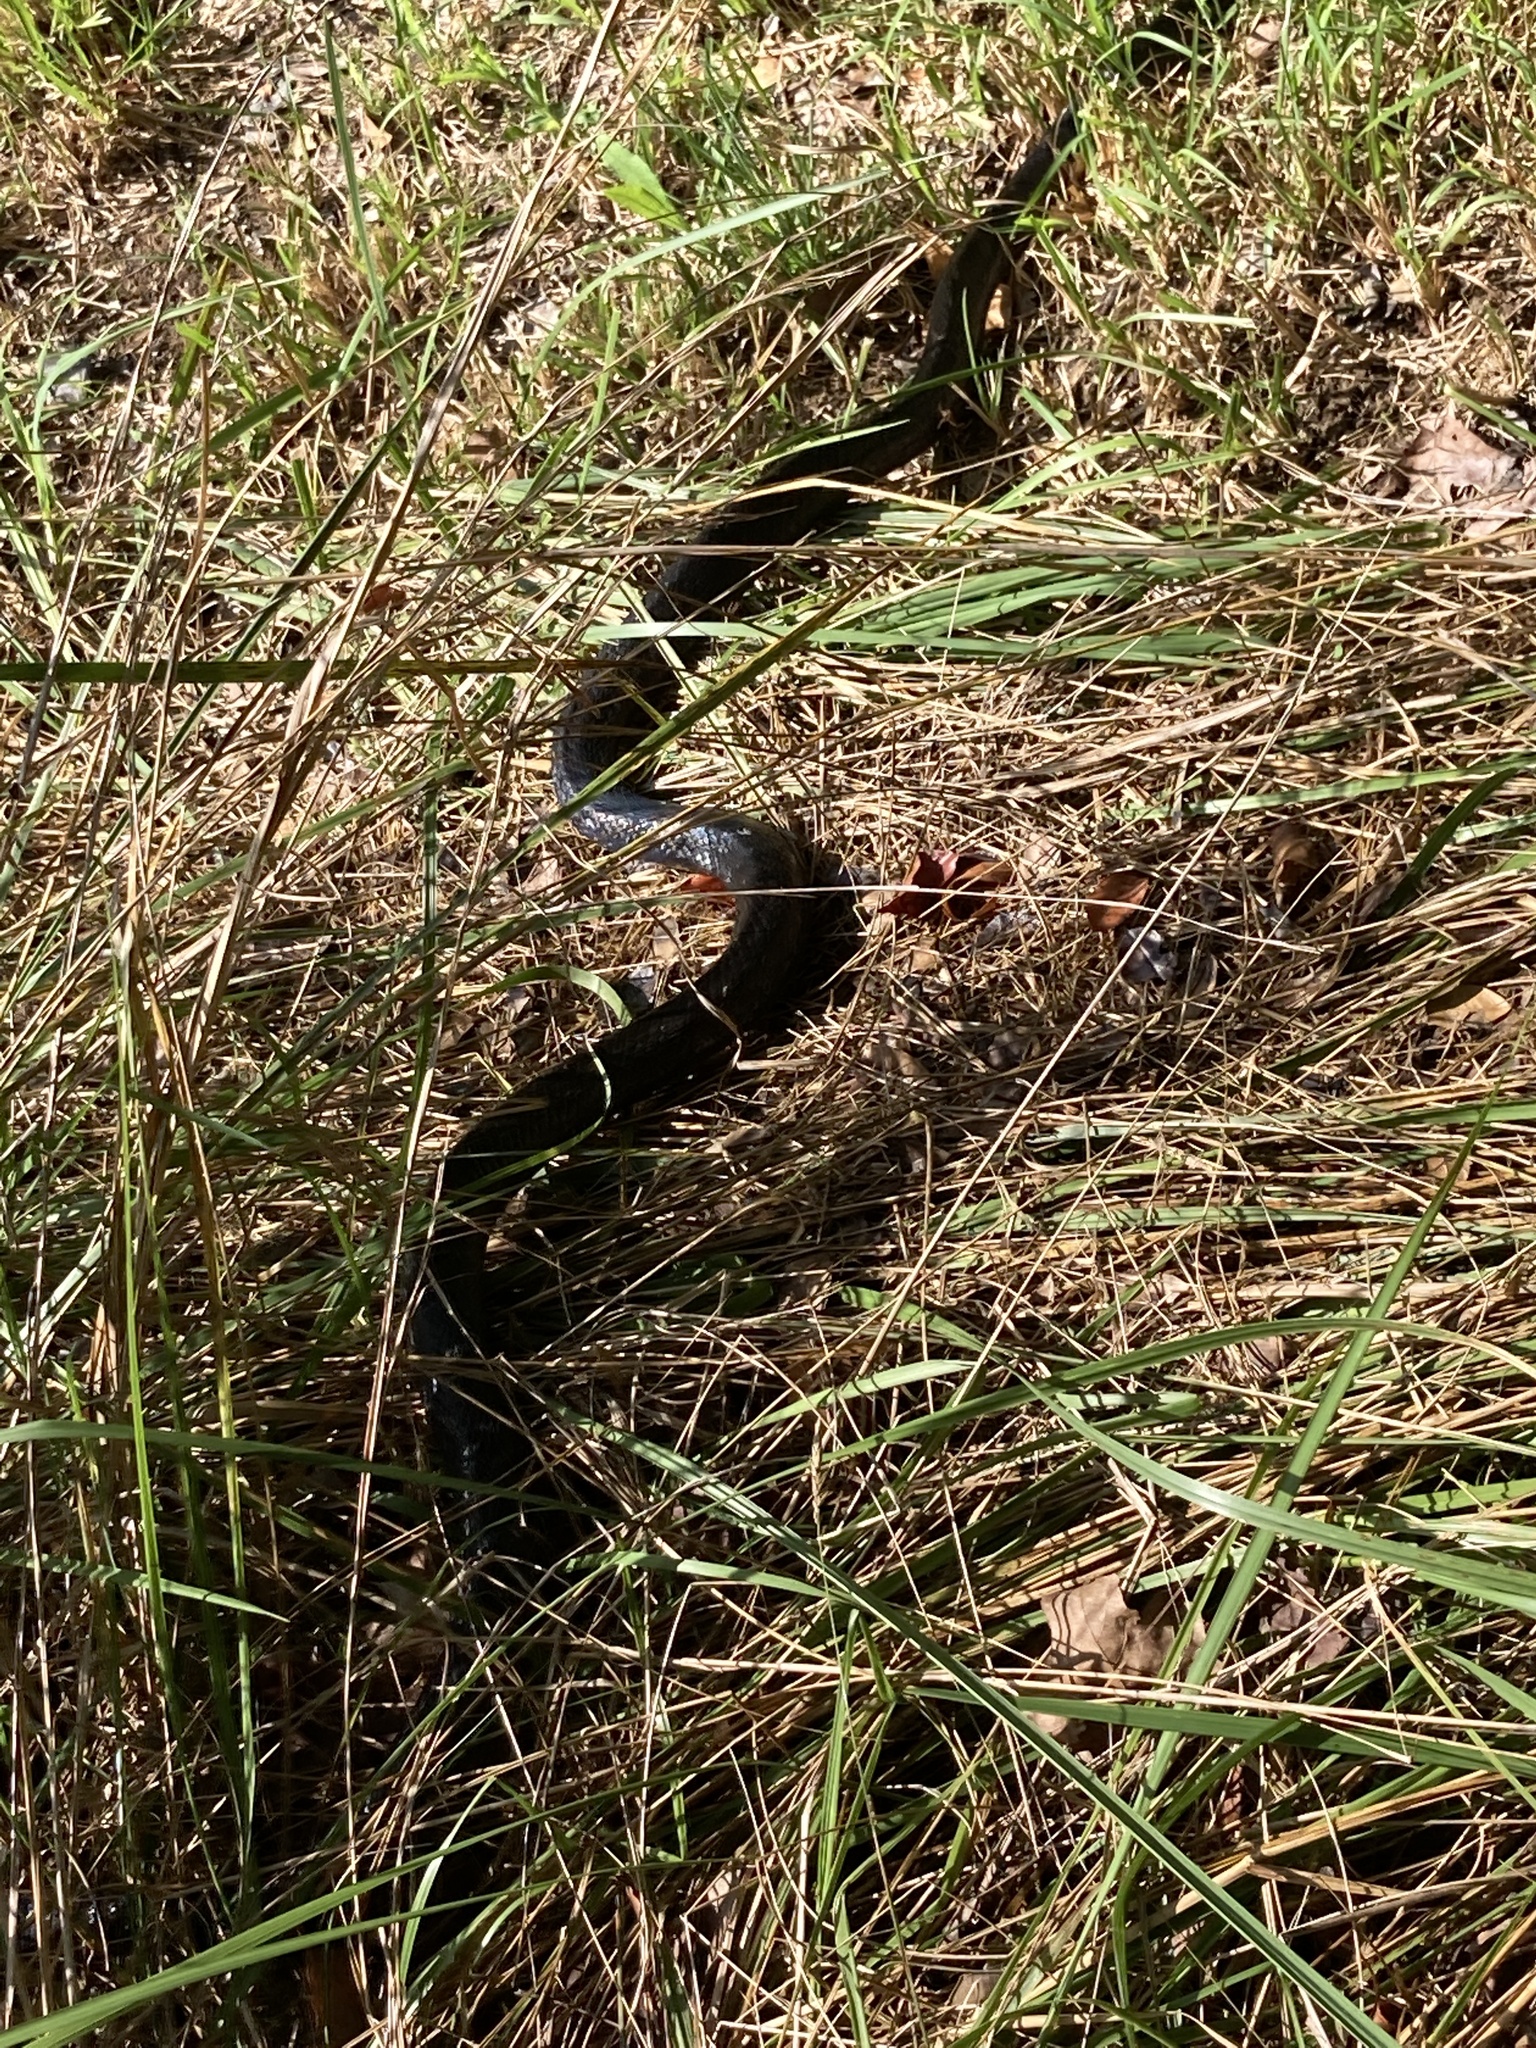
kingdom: Animalia
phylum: Chordata
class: Squamata
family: Colubridae
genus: Pantherophis
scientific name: Pantherophis alleghaniensis
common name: Eastern rat snake
